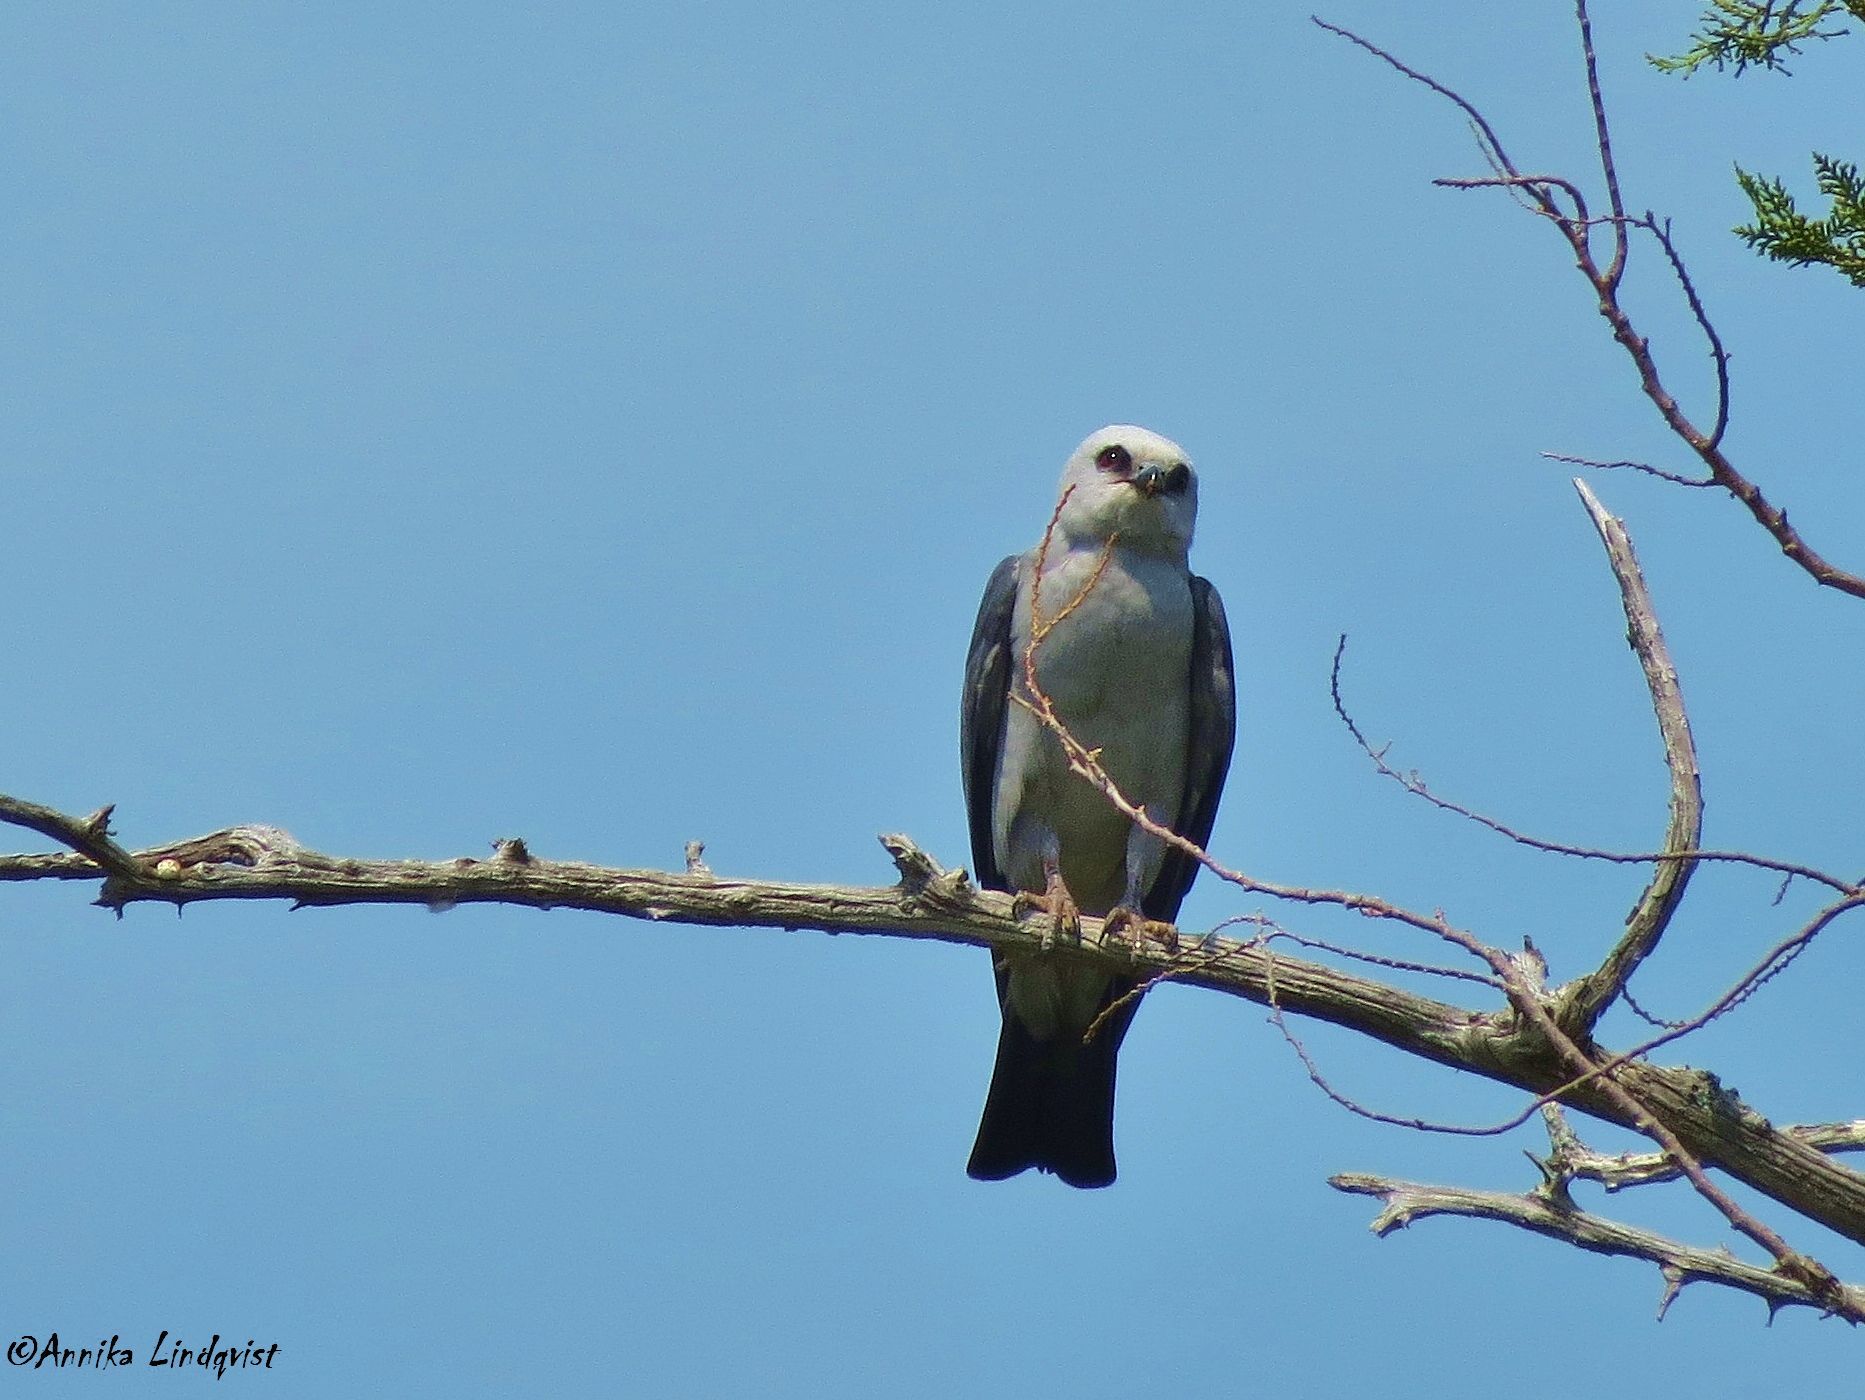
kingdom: Animalia
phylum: Chordata
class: Aves
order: Accipitriformes
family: Accipitridae
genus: Ictinia
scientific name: Ictinia mississippiensis
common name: Mississippi kite
